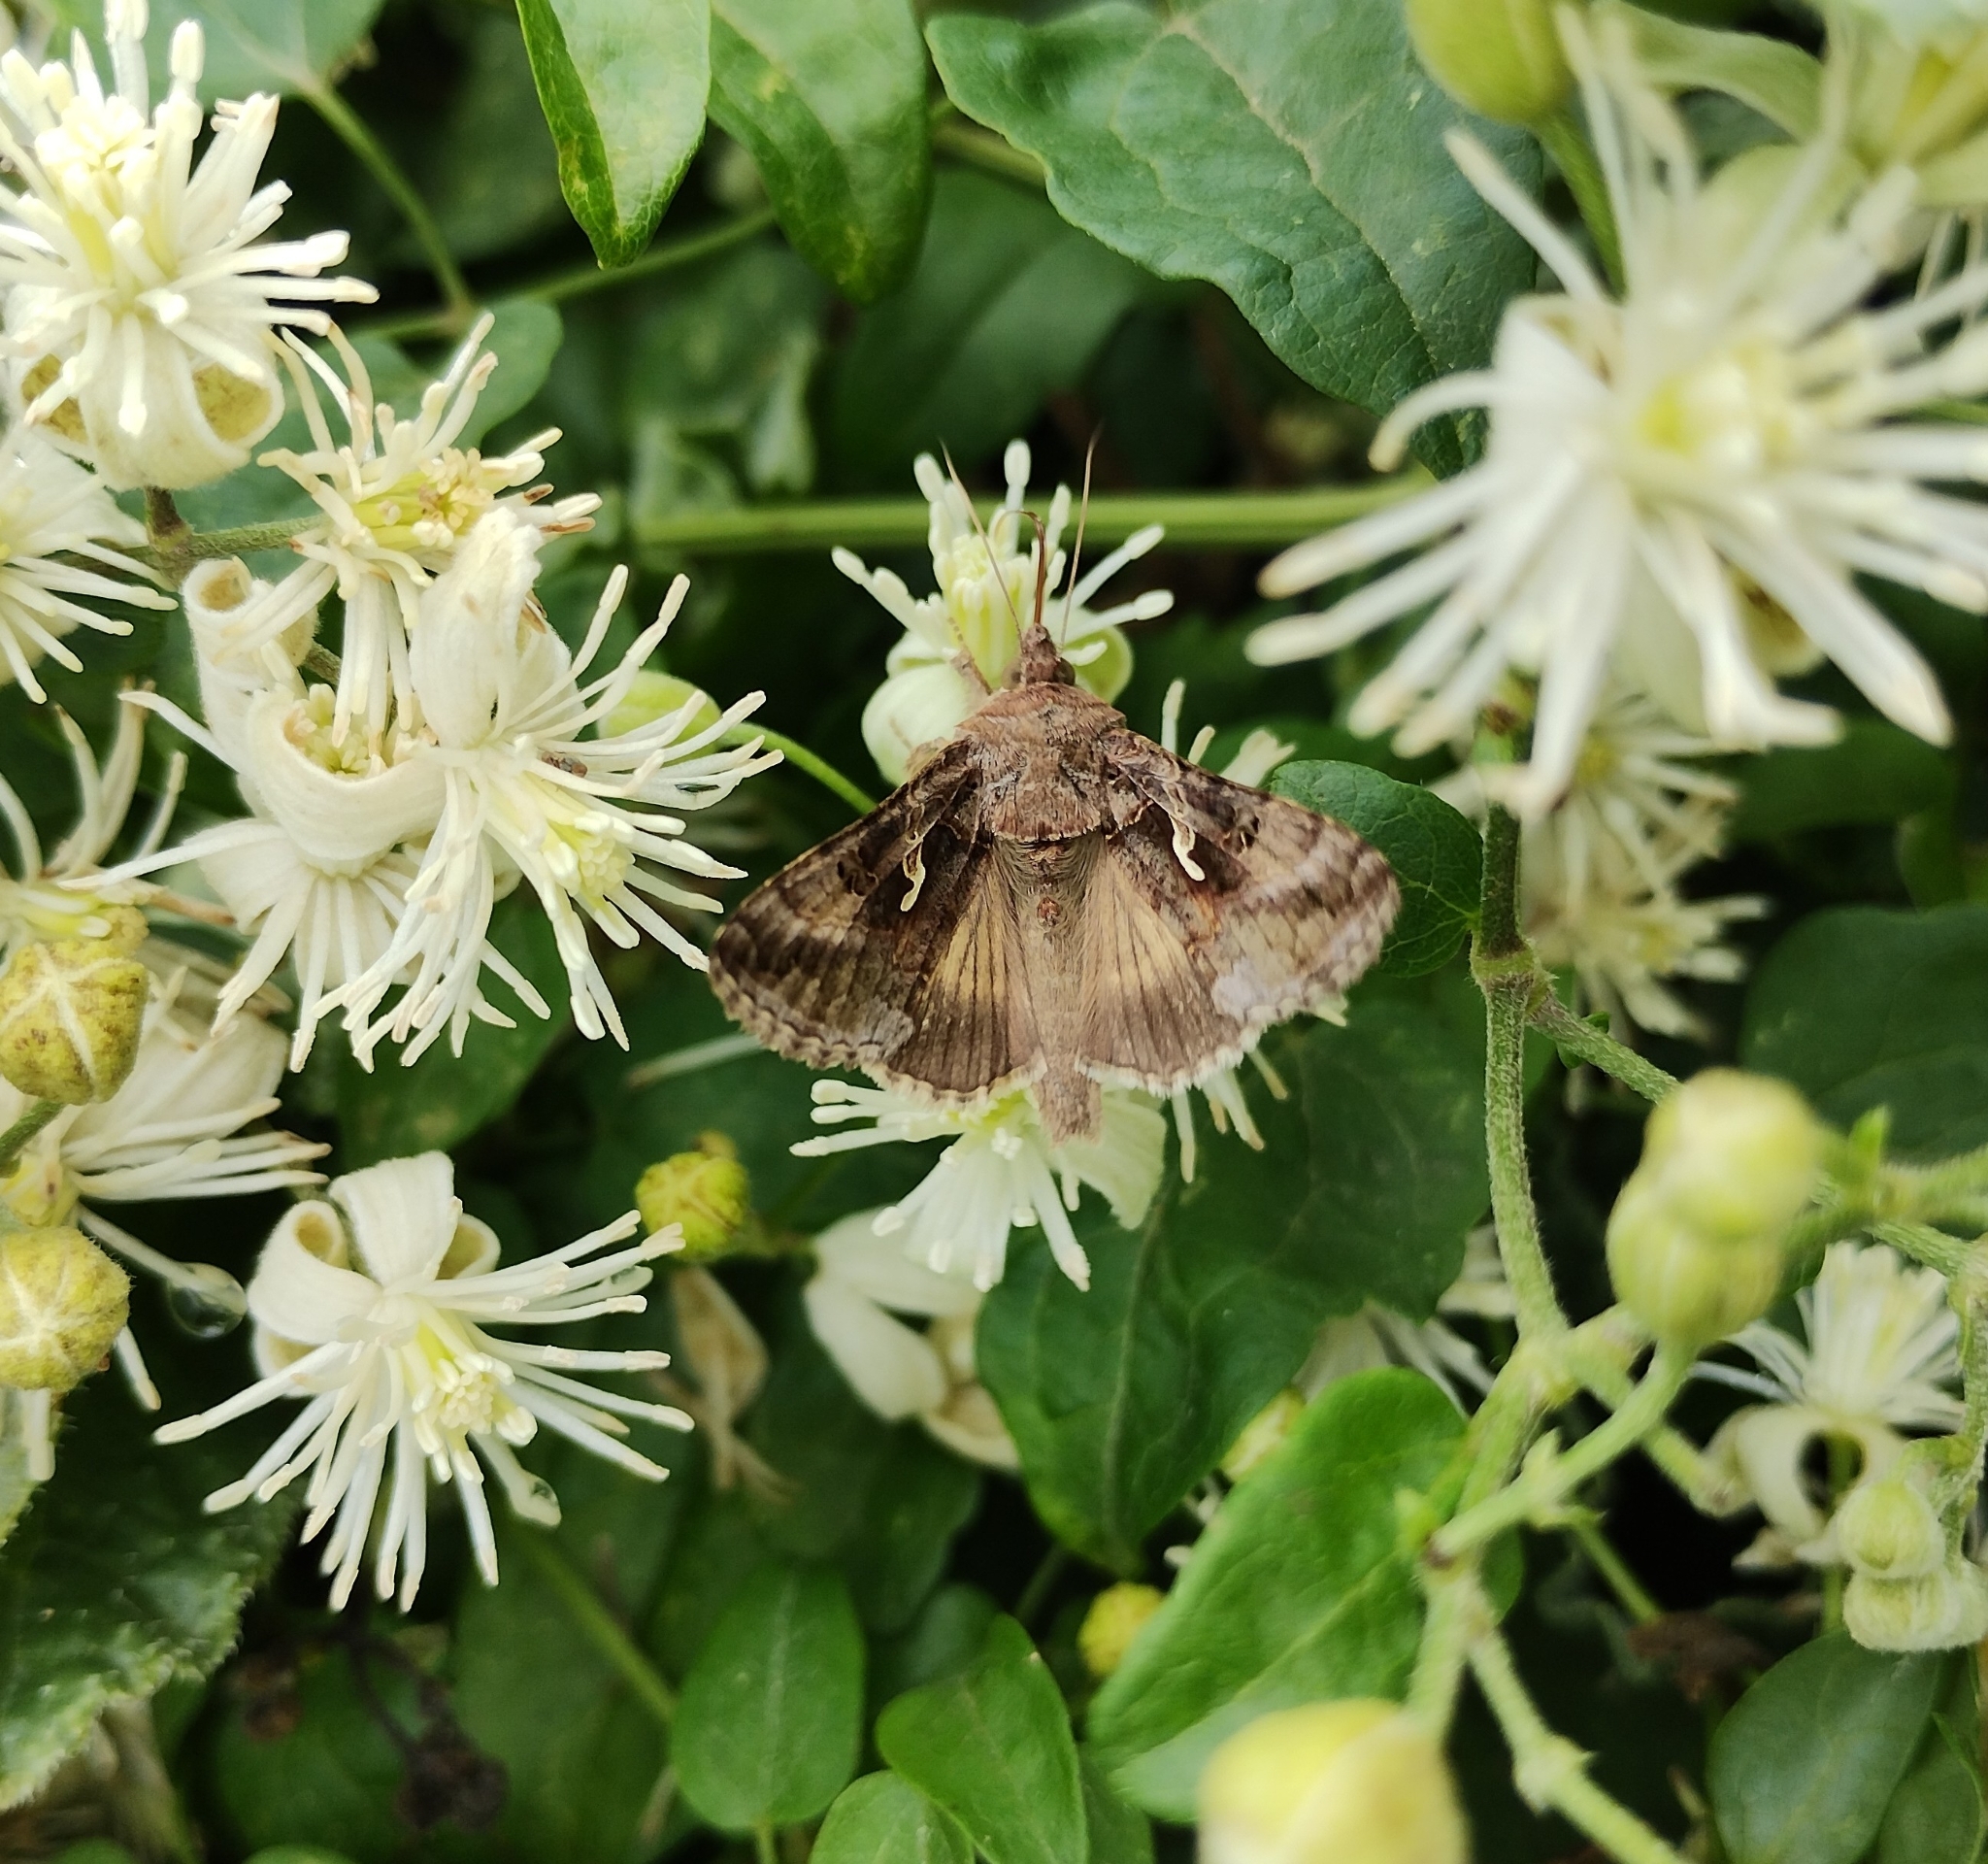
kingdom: Animalia
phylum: Arthropoda
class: Insecta
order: Lepidoptera
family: Noctuidae
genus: Autographa
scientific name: Autographa gamma
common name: Silver y
